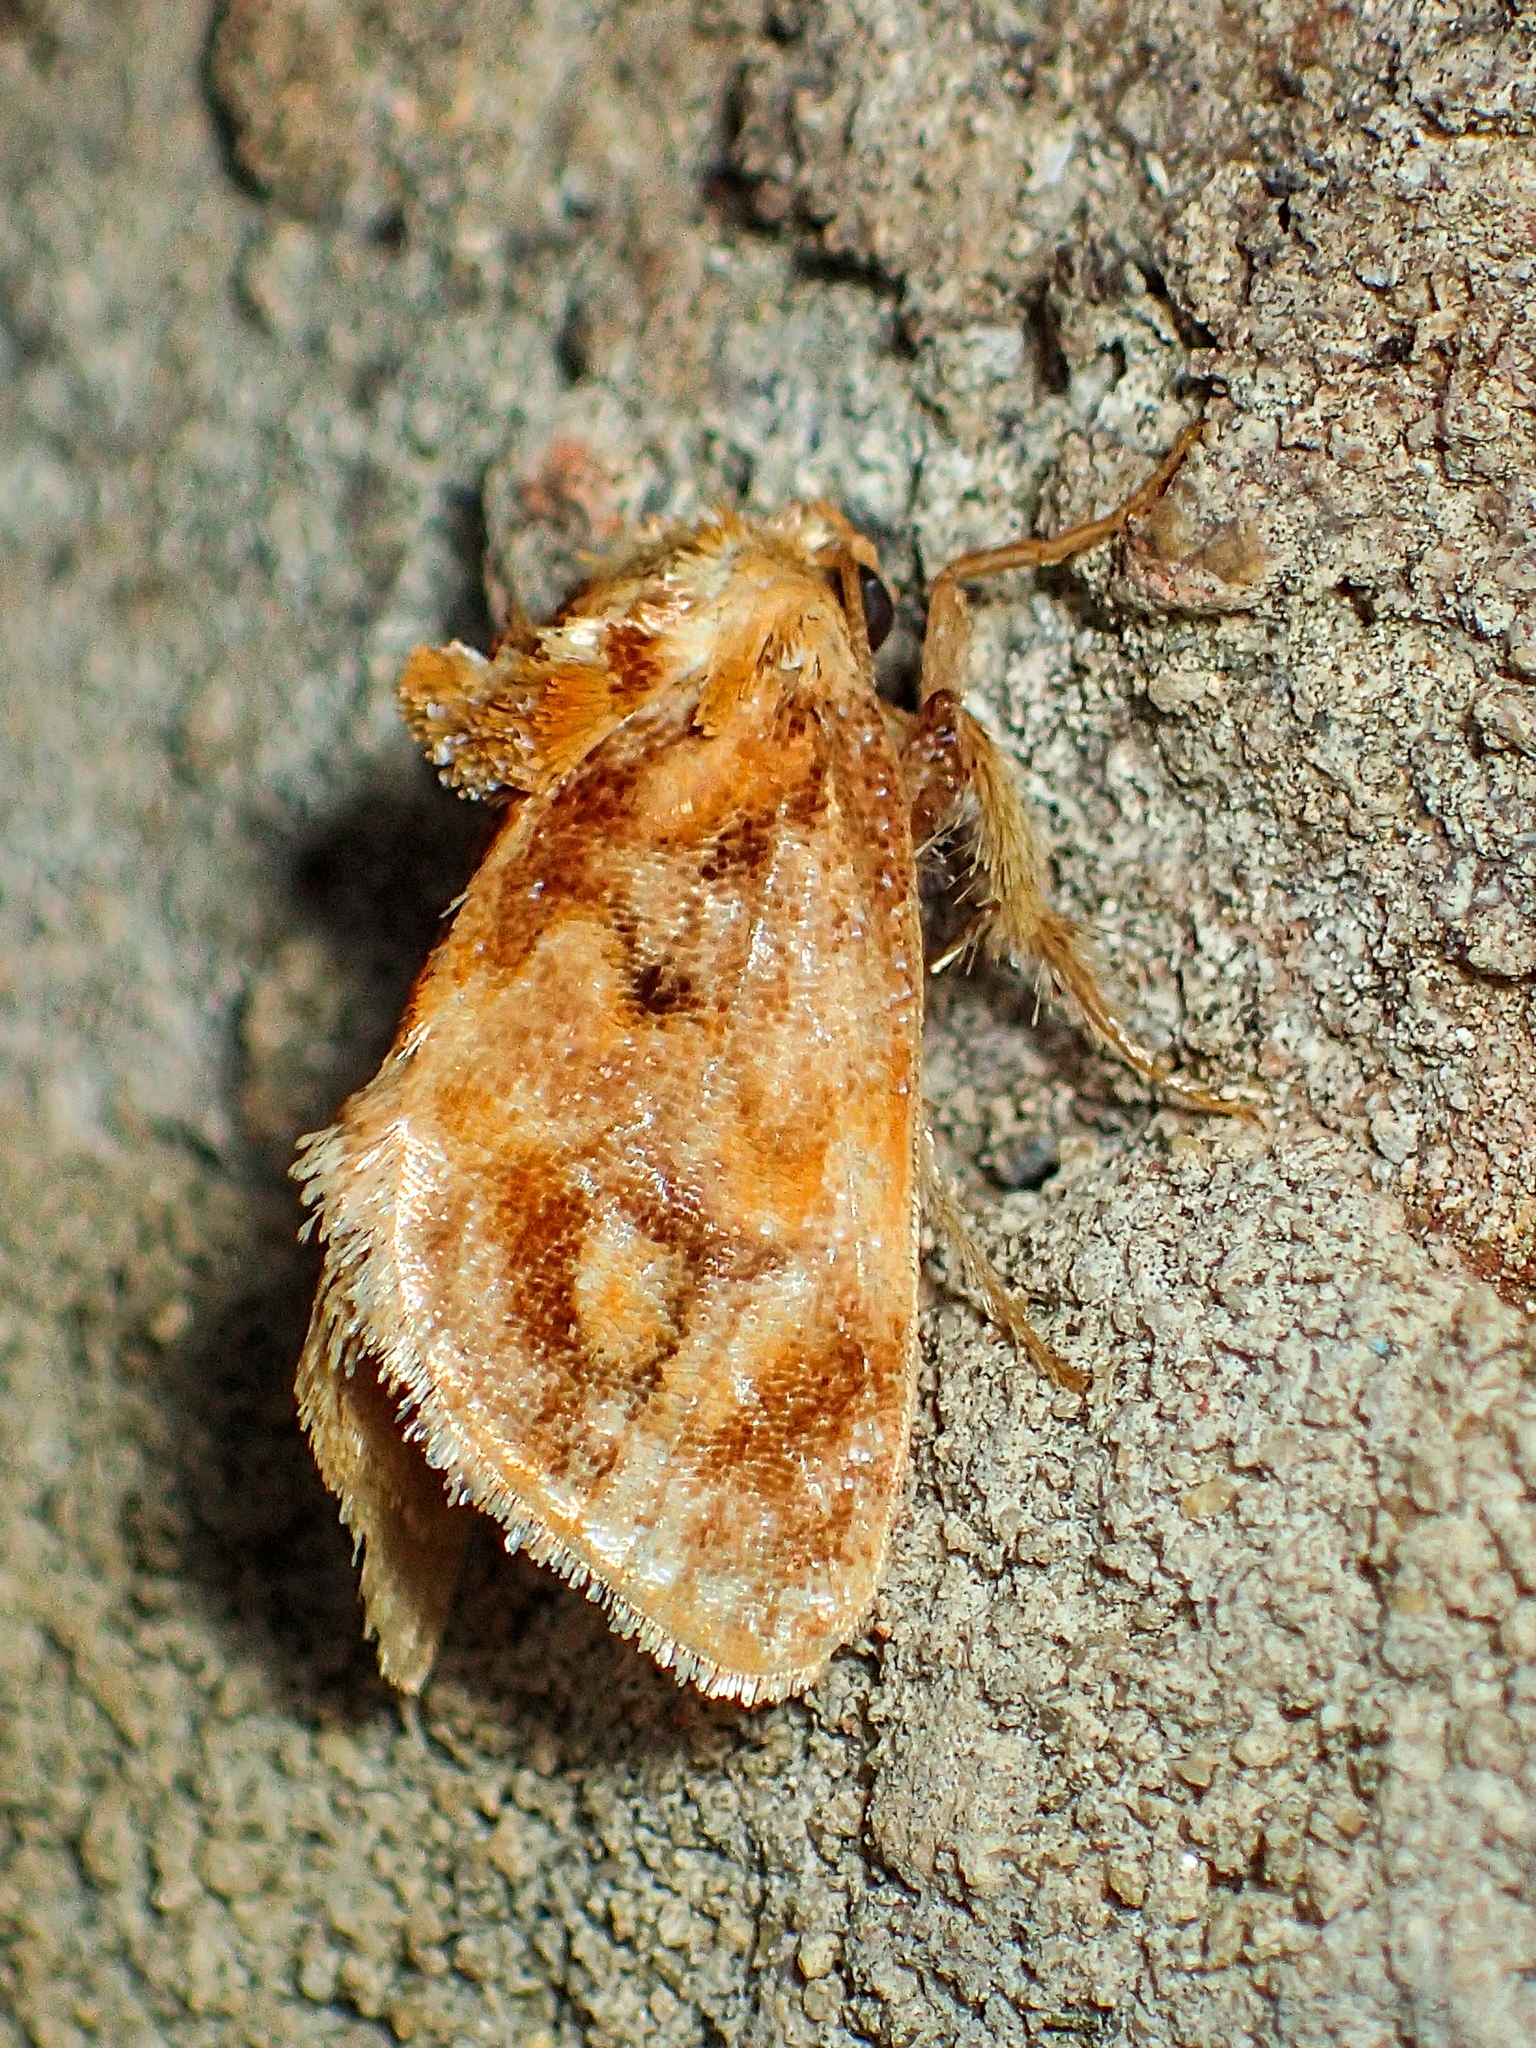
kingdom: Animalia
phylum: Arthropoda
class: Insecta
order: Lepidoptera
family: Limacodidae
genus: Isochaetes
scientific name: Isochaetes beutenmuelleri
